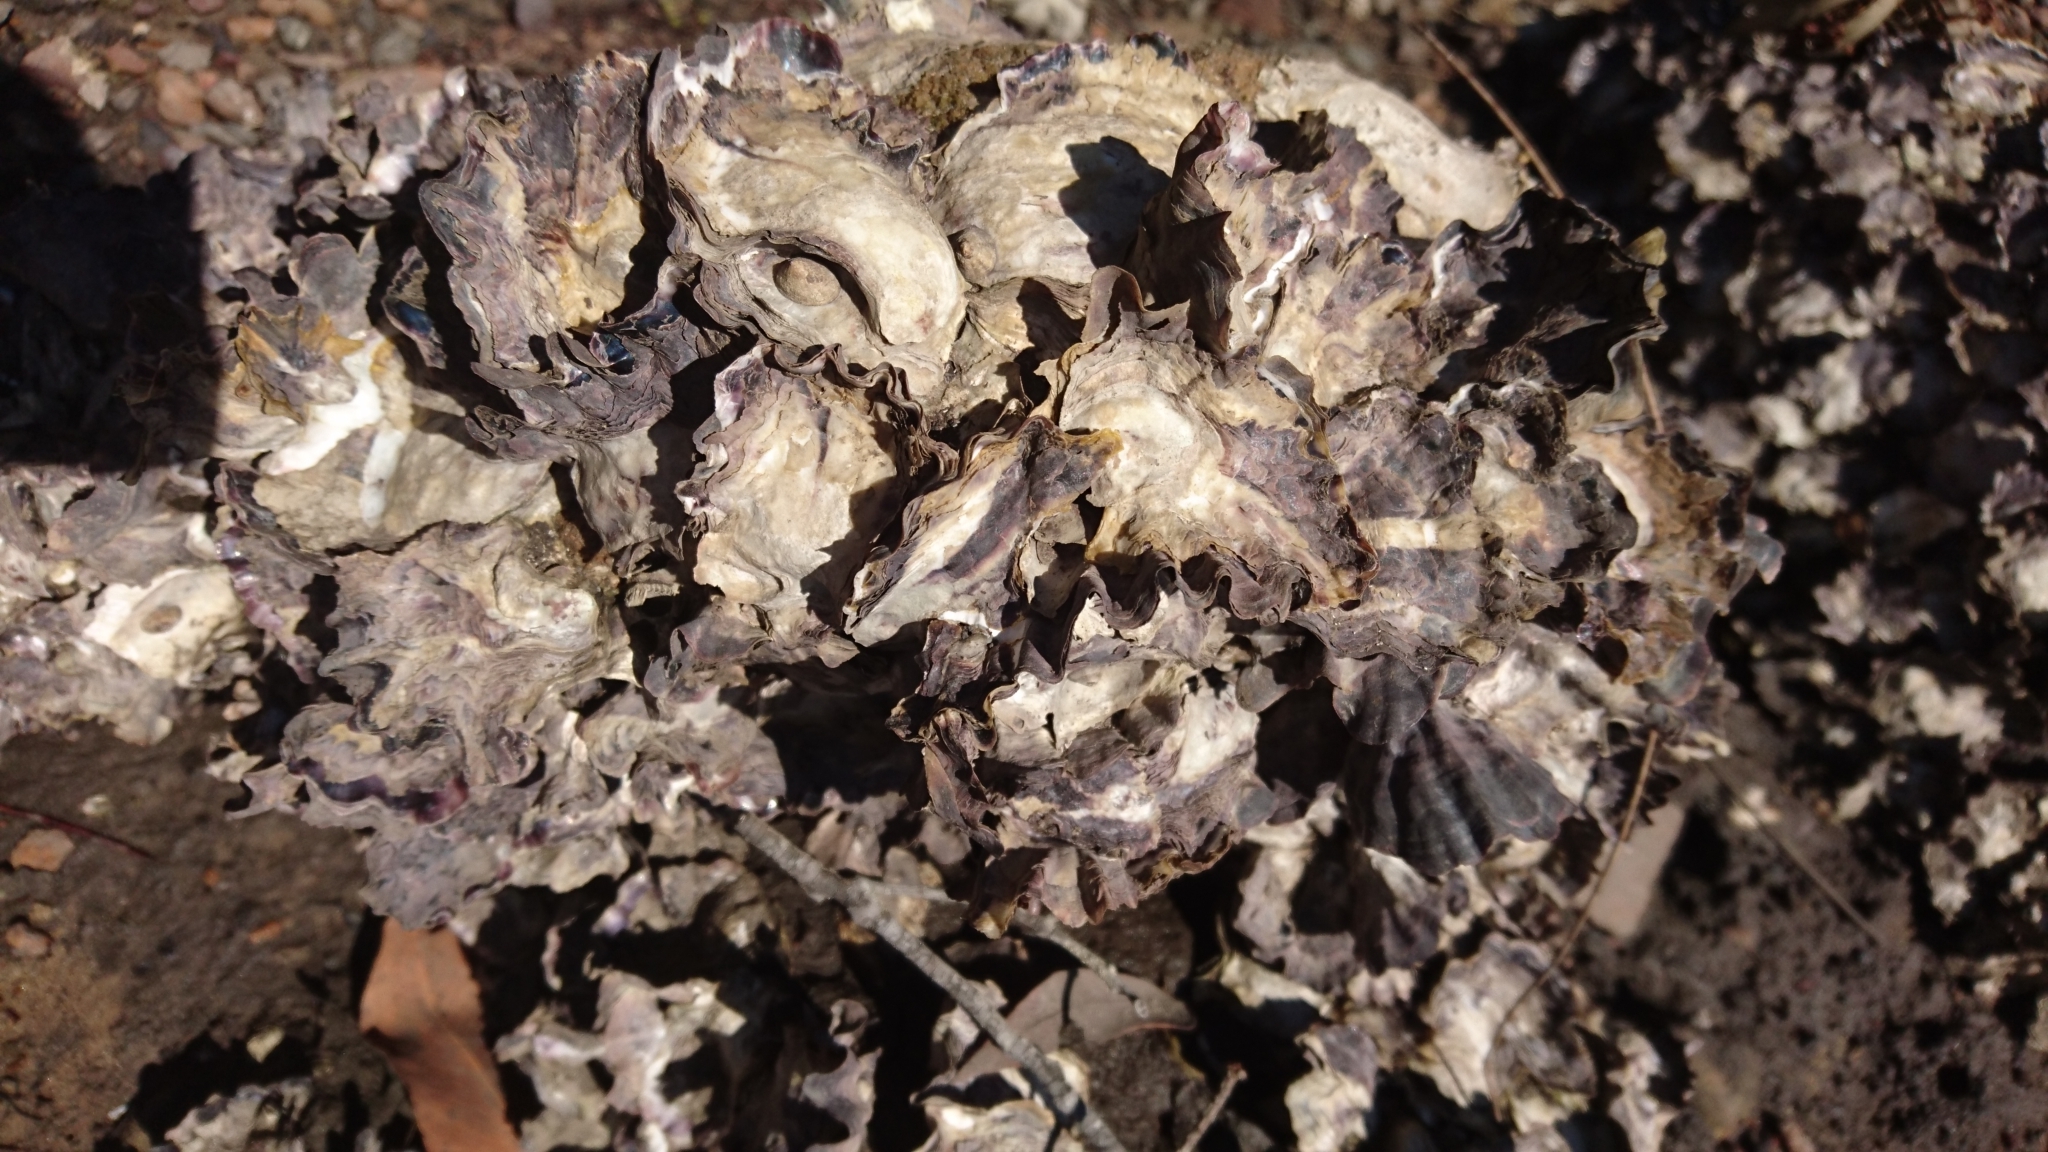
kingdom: Animalia
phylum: Mollusca
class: Bivalvia
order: Ostreida
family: Ostreidae
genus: Saccostrea
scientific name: Saccostrea glomerata
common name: Sydney cupped oyster
